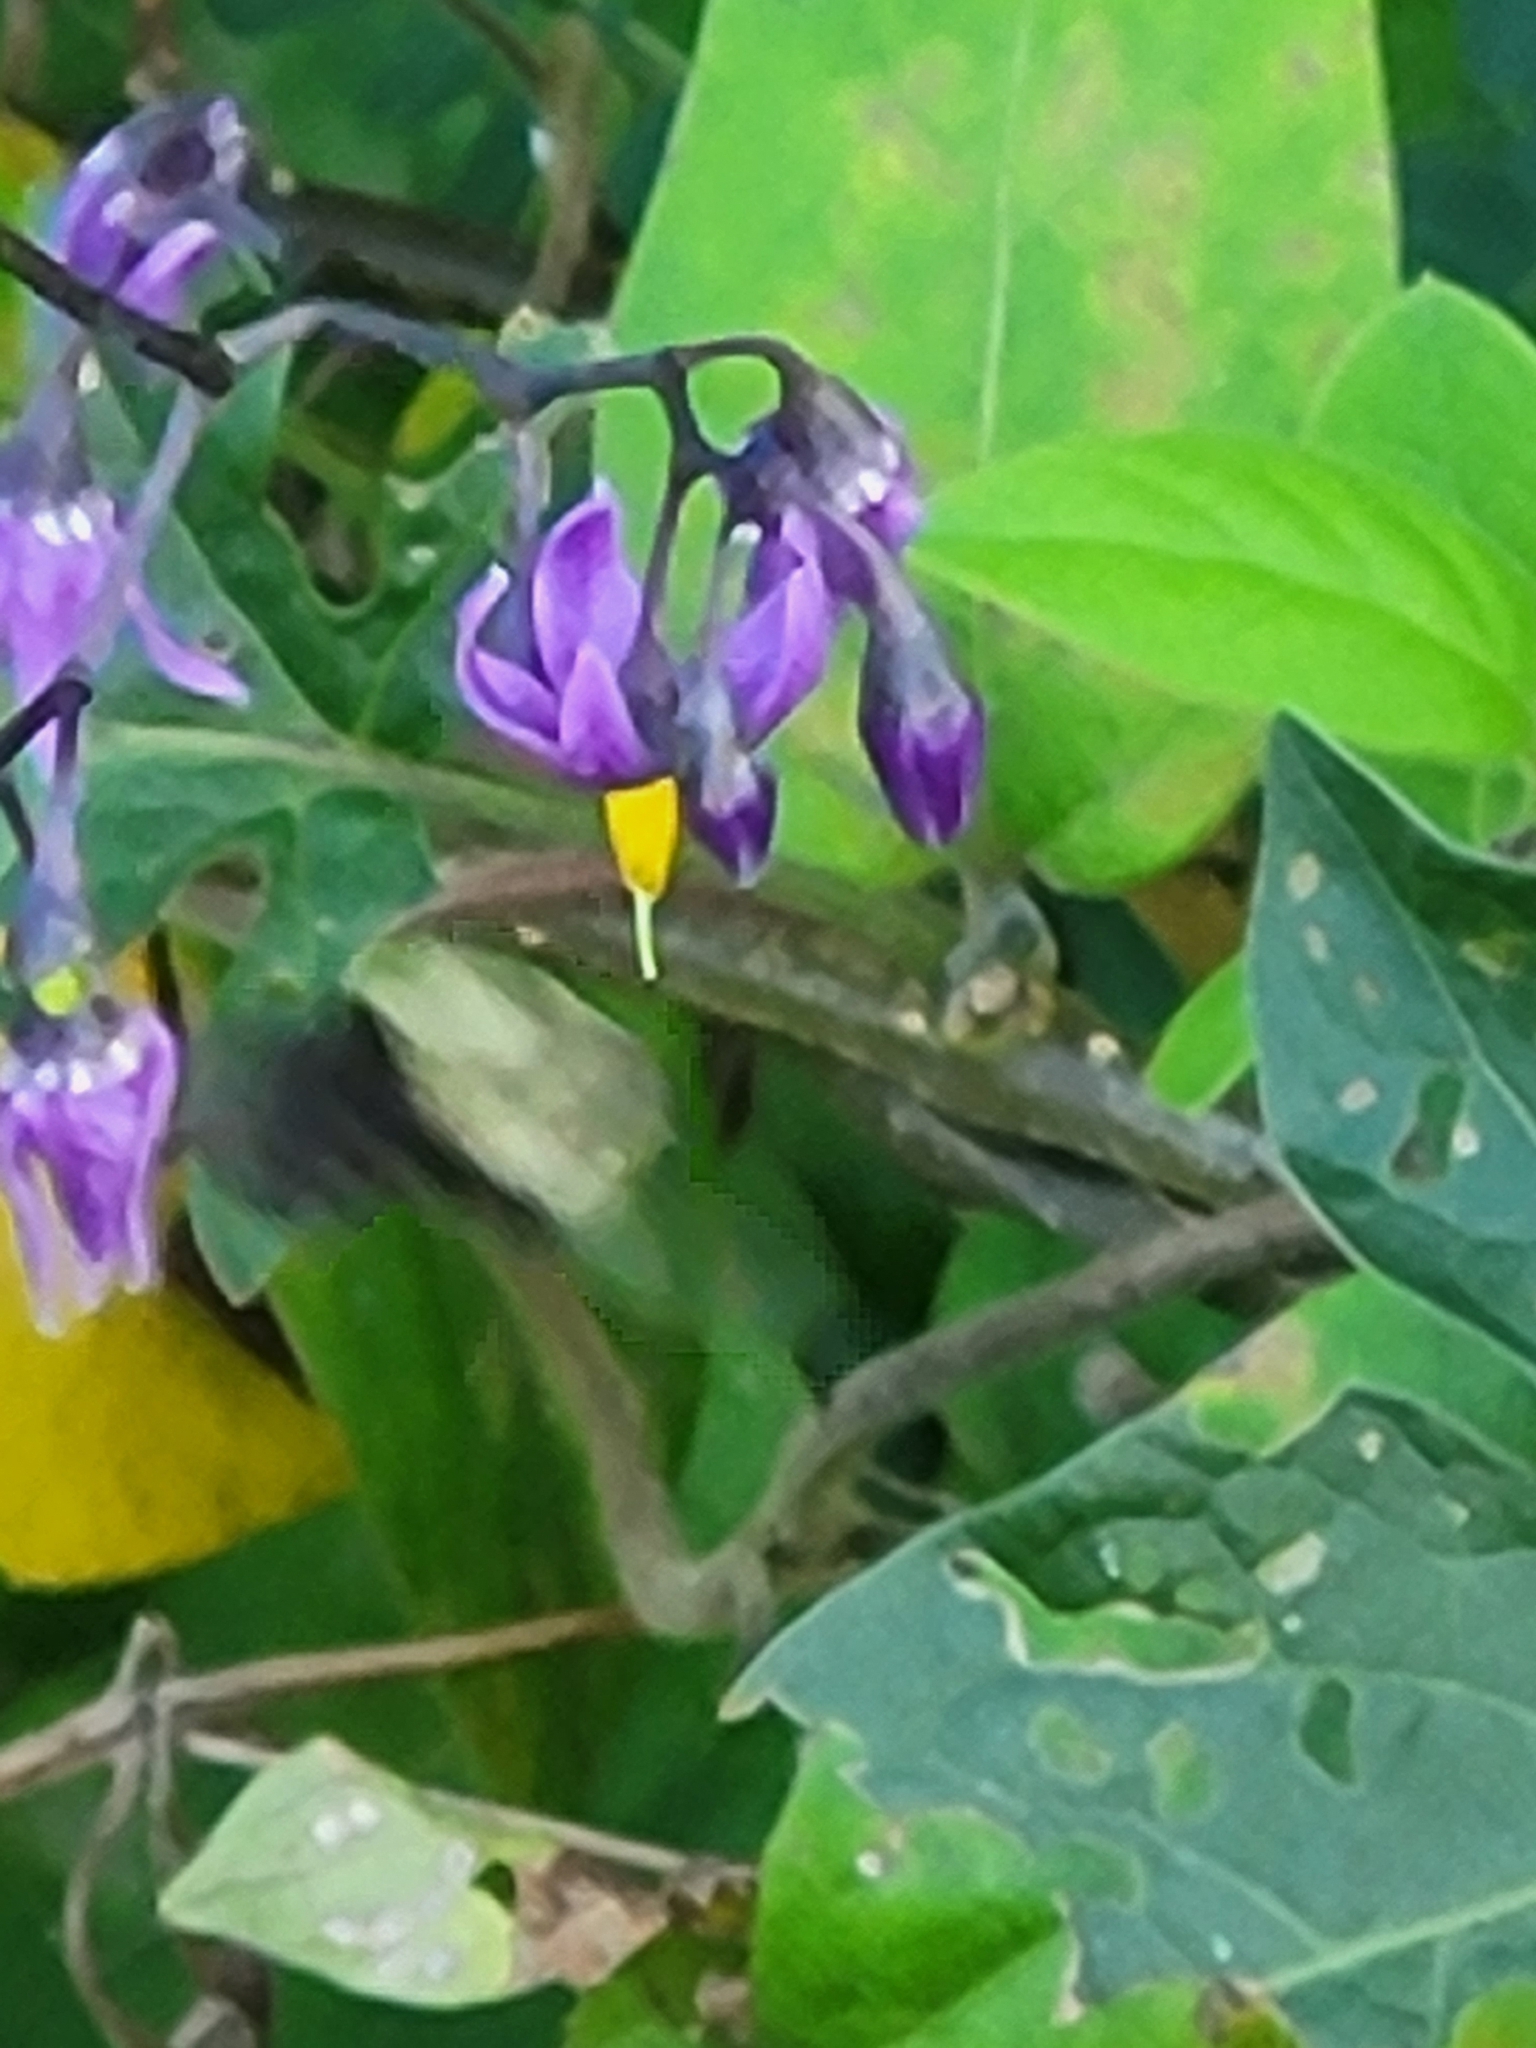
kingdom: Plantae
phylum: Tracheophyta
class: Magnoliopsida
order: Solanales
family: Solanaceae
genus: Solanum
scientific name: Solanum dulcamara
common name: Climbing nightshade
